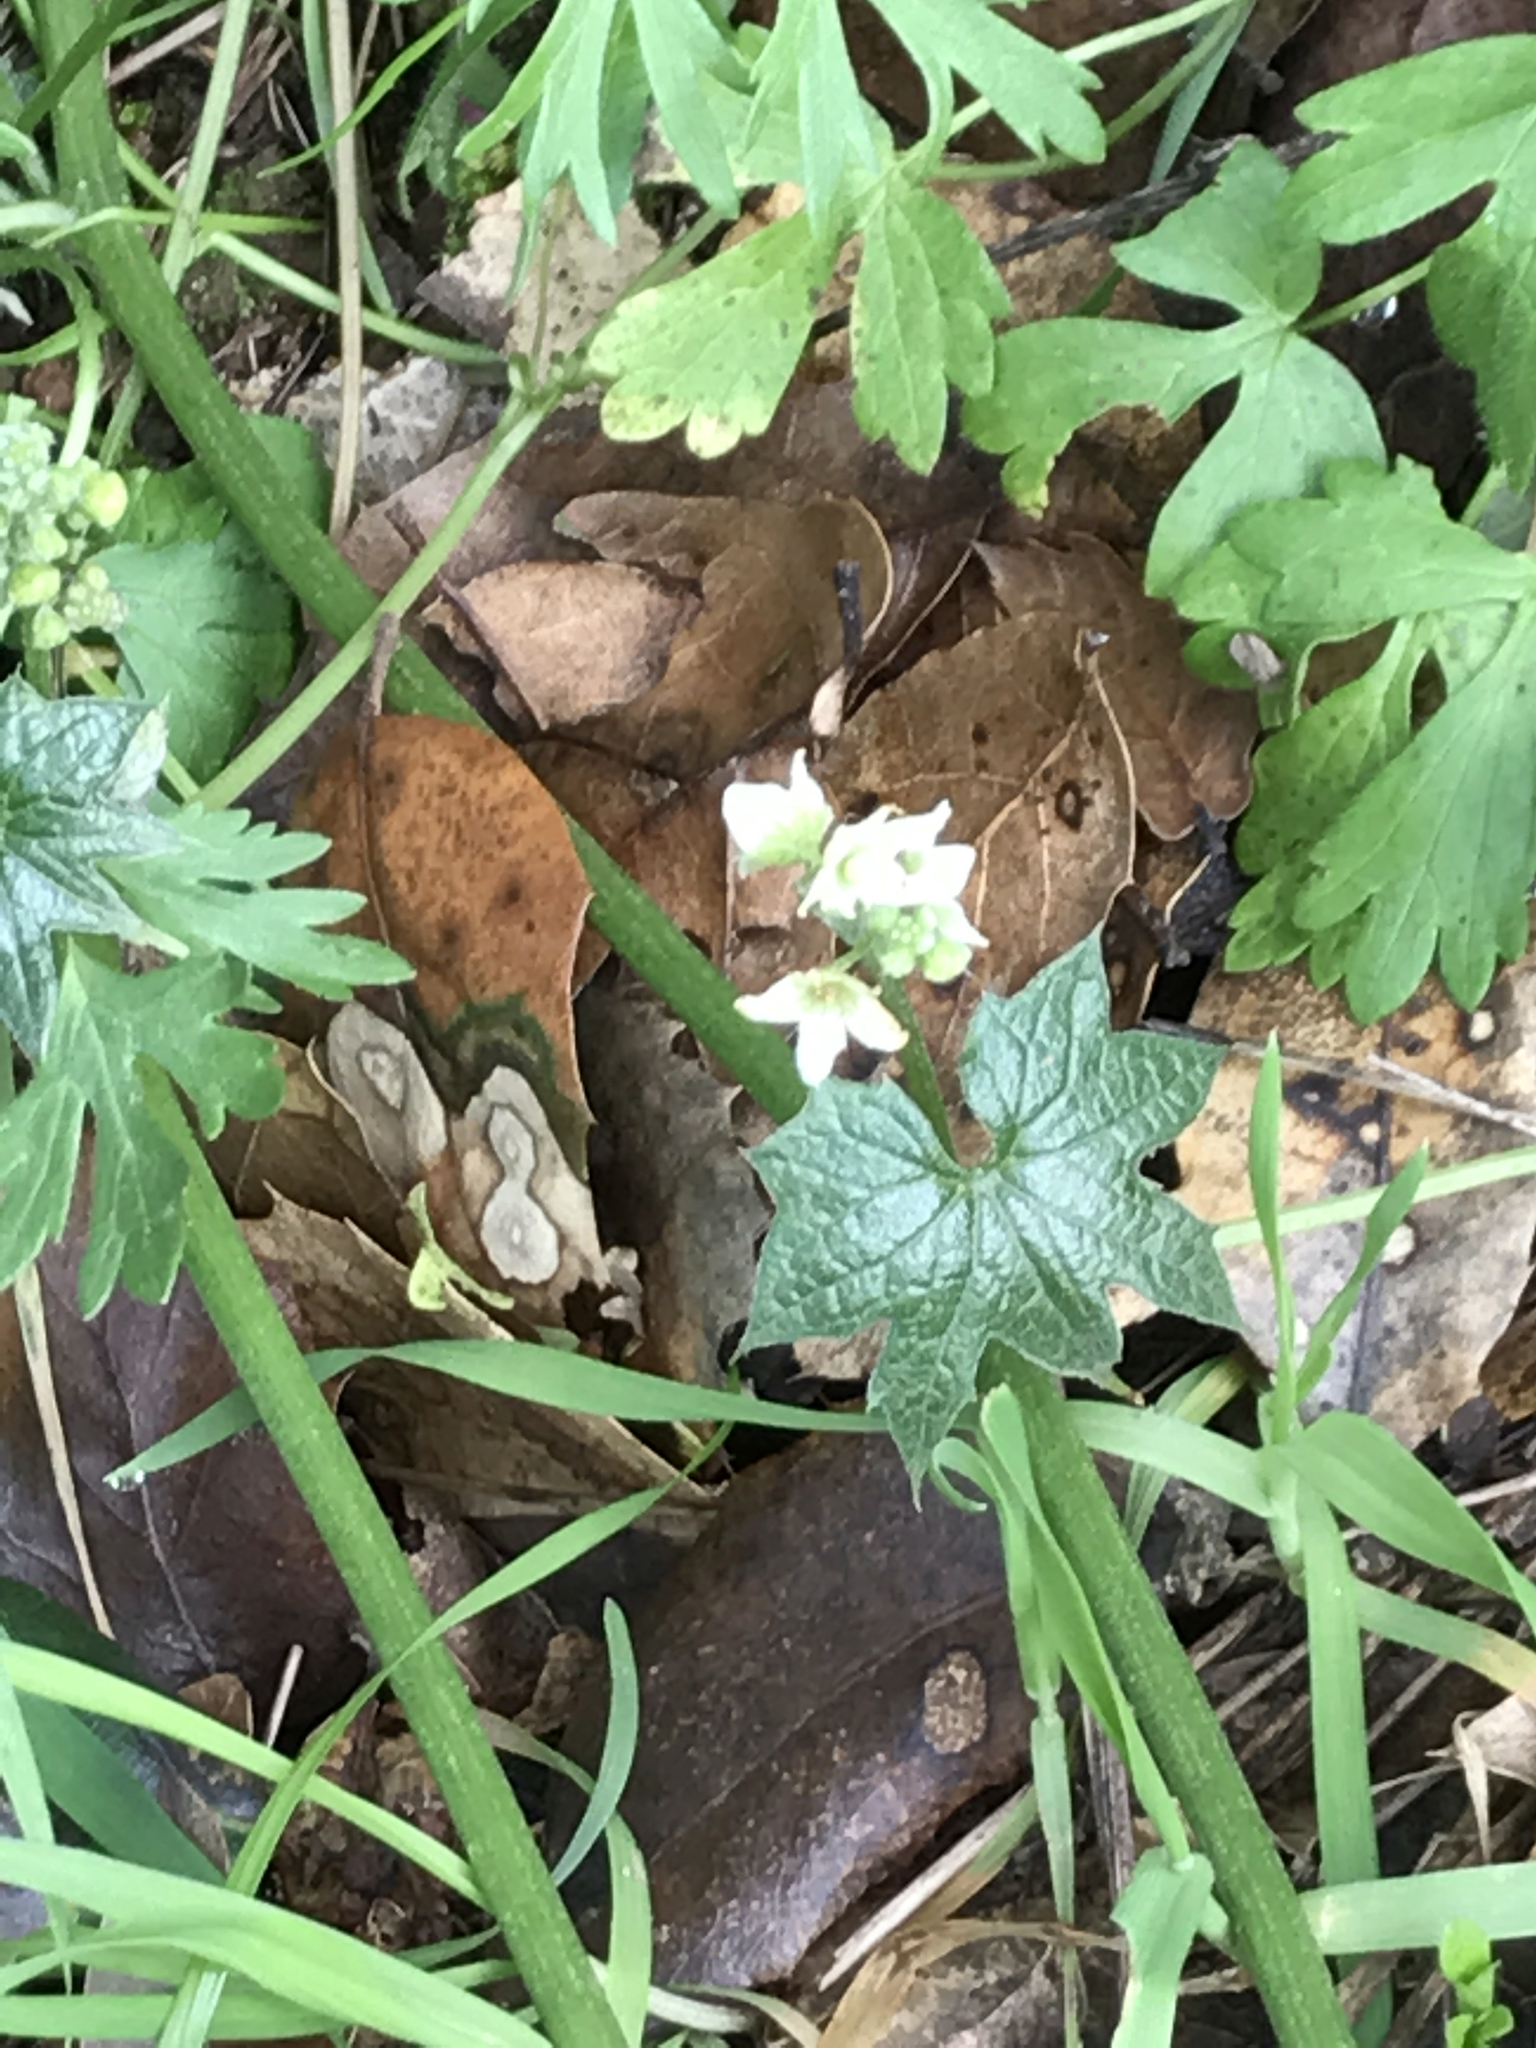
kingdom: Plantae
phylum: Tracheophyta
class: Magnoliopsida
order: Cucurbitales
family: Cucurbitaceae
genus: Marah
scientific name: Marah fabacea
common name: California manroot
